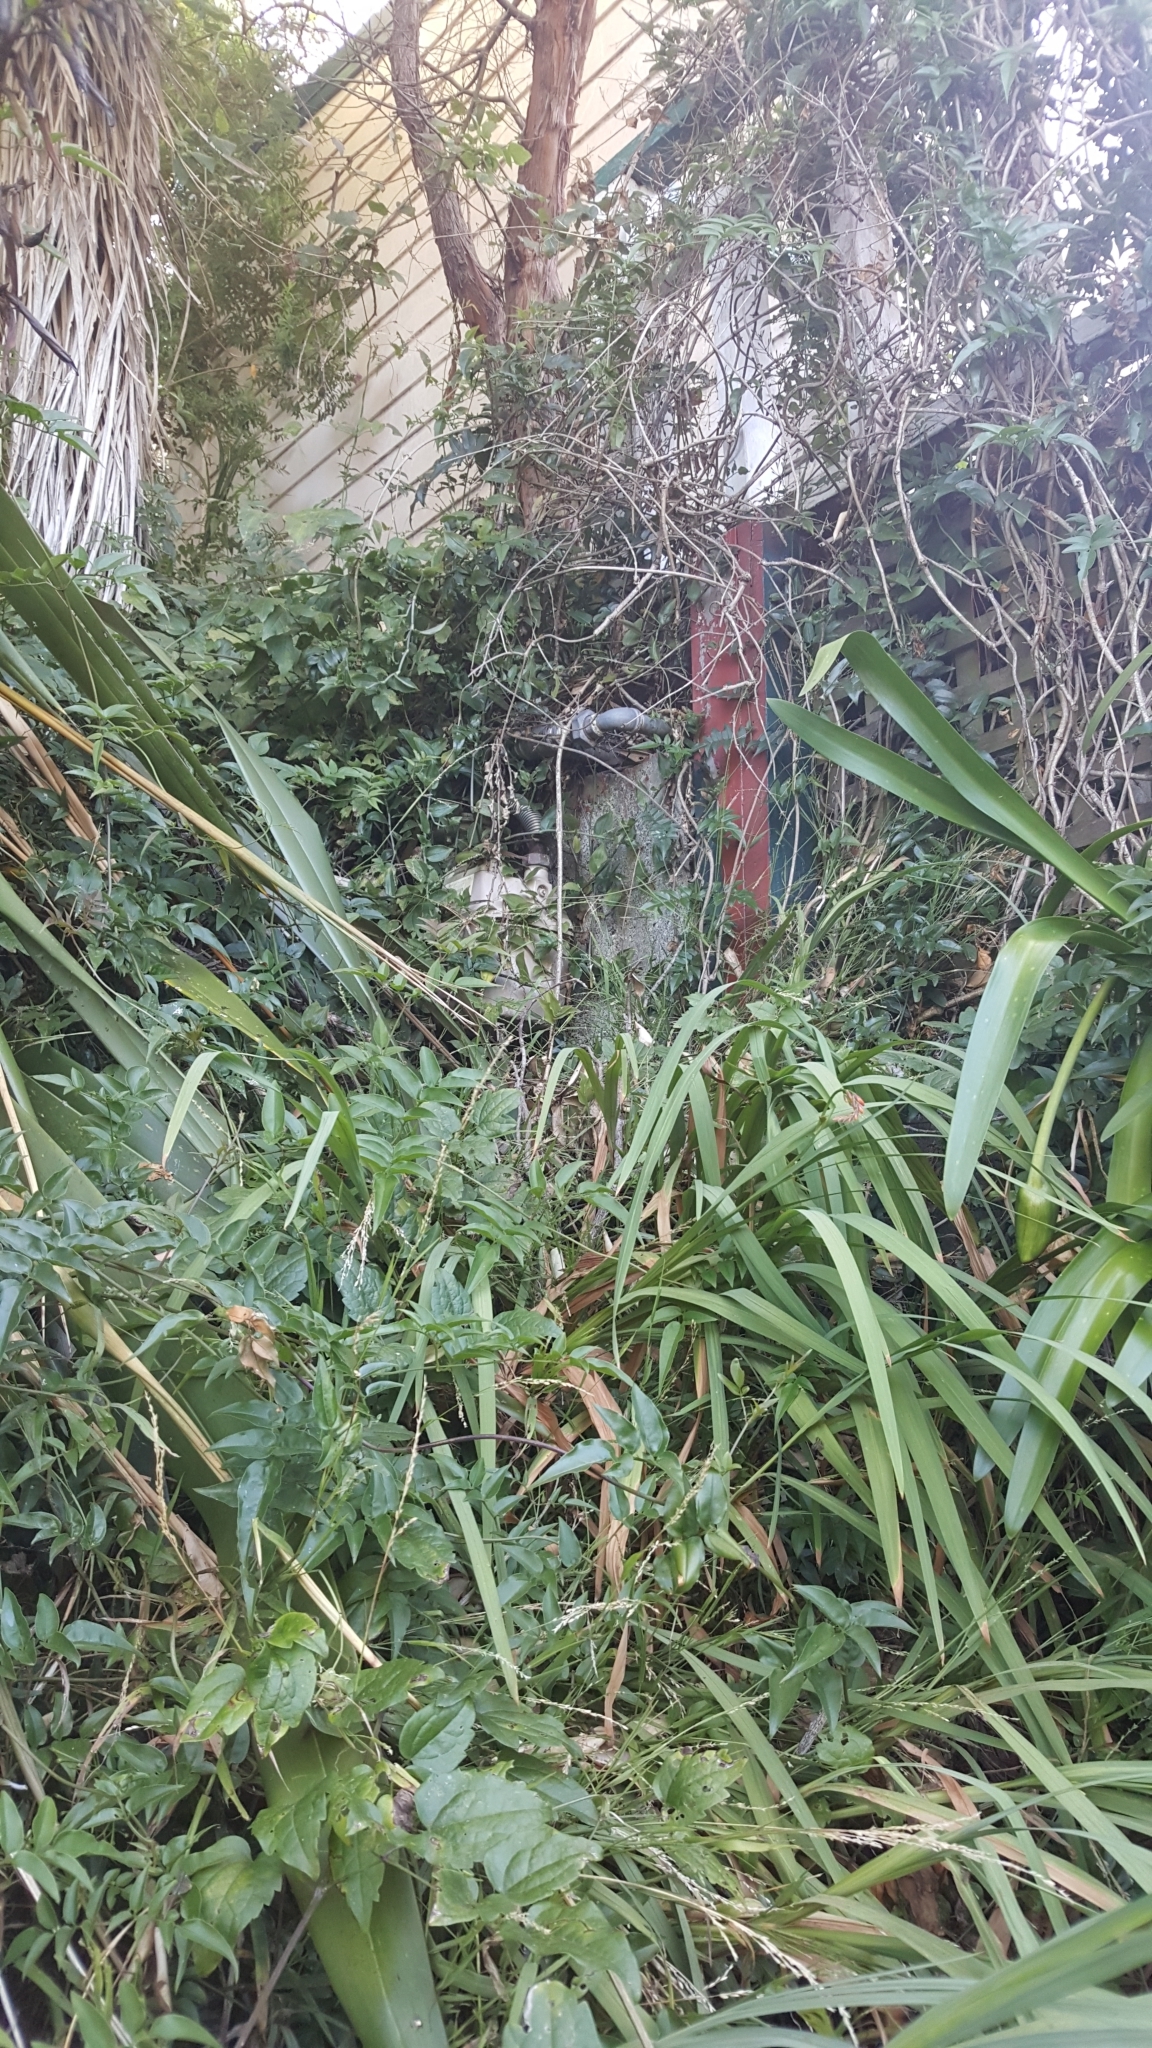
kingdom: Plantae
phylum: Tracheophyta
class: Magnoliopsida
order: Ranunculales
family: Ranunculaceae
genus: Clematis
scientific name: Clematis vitalba
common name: Evergreen clematis
